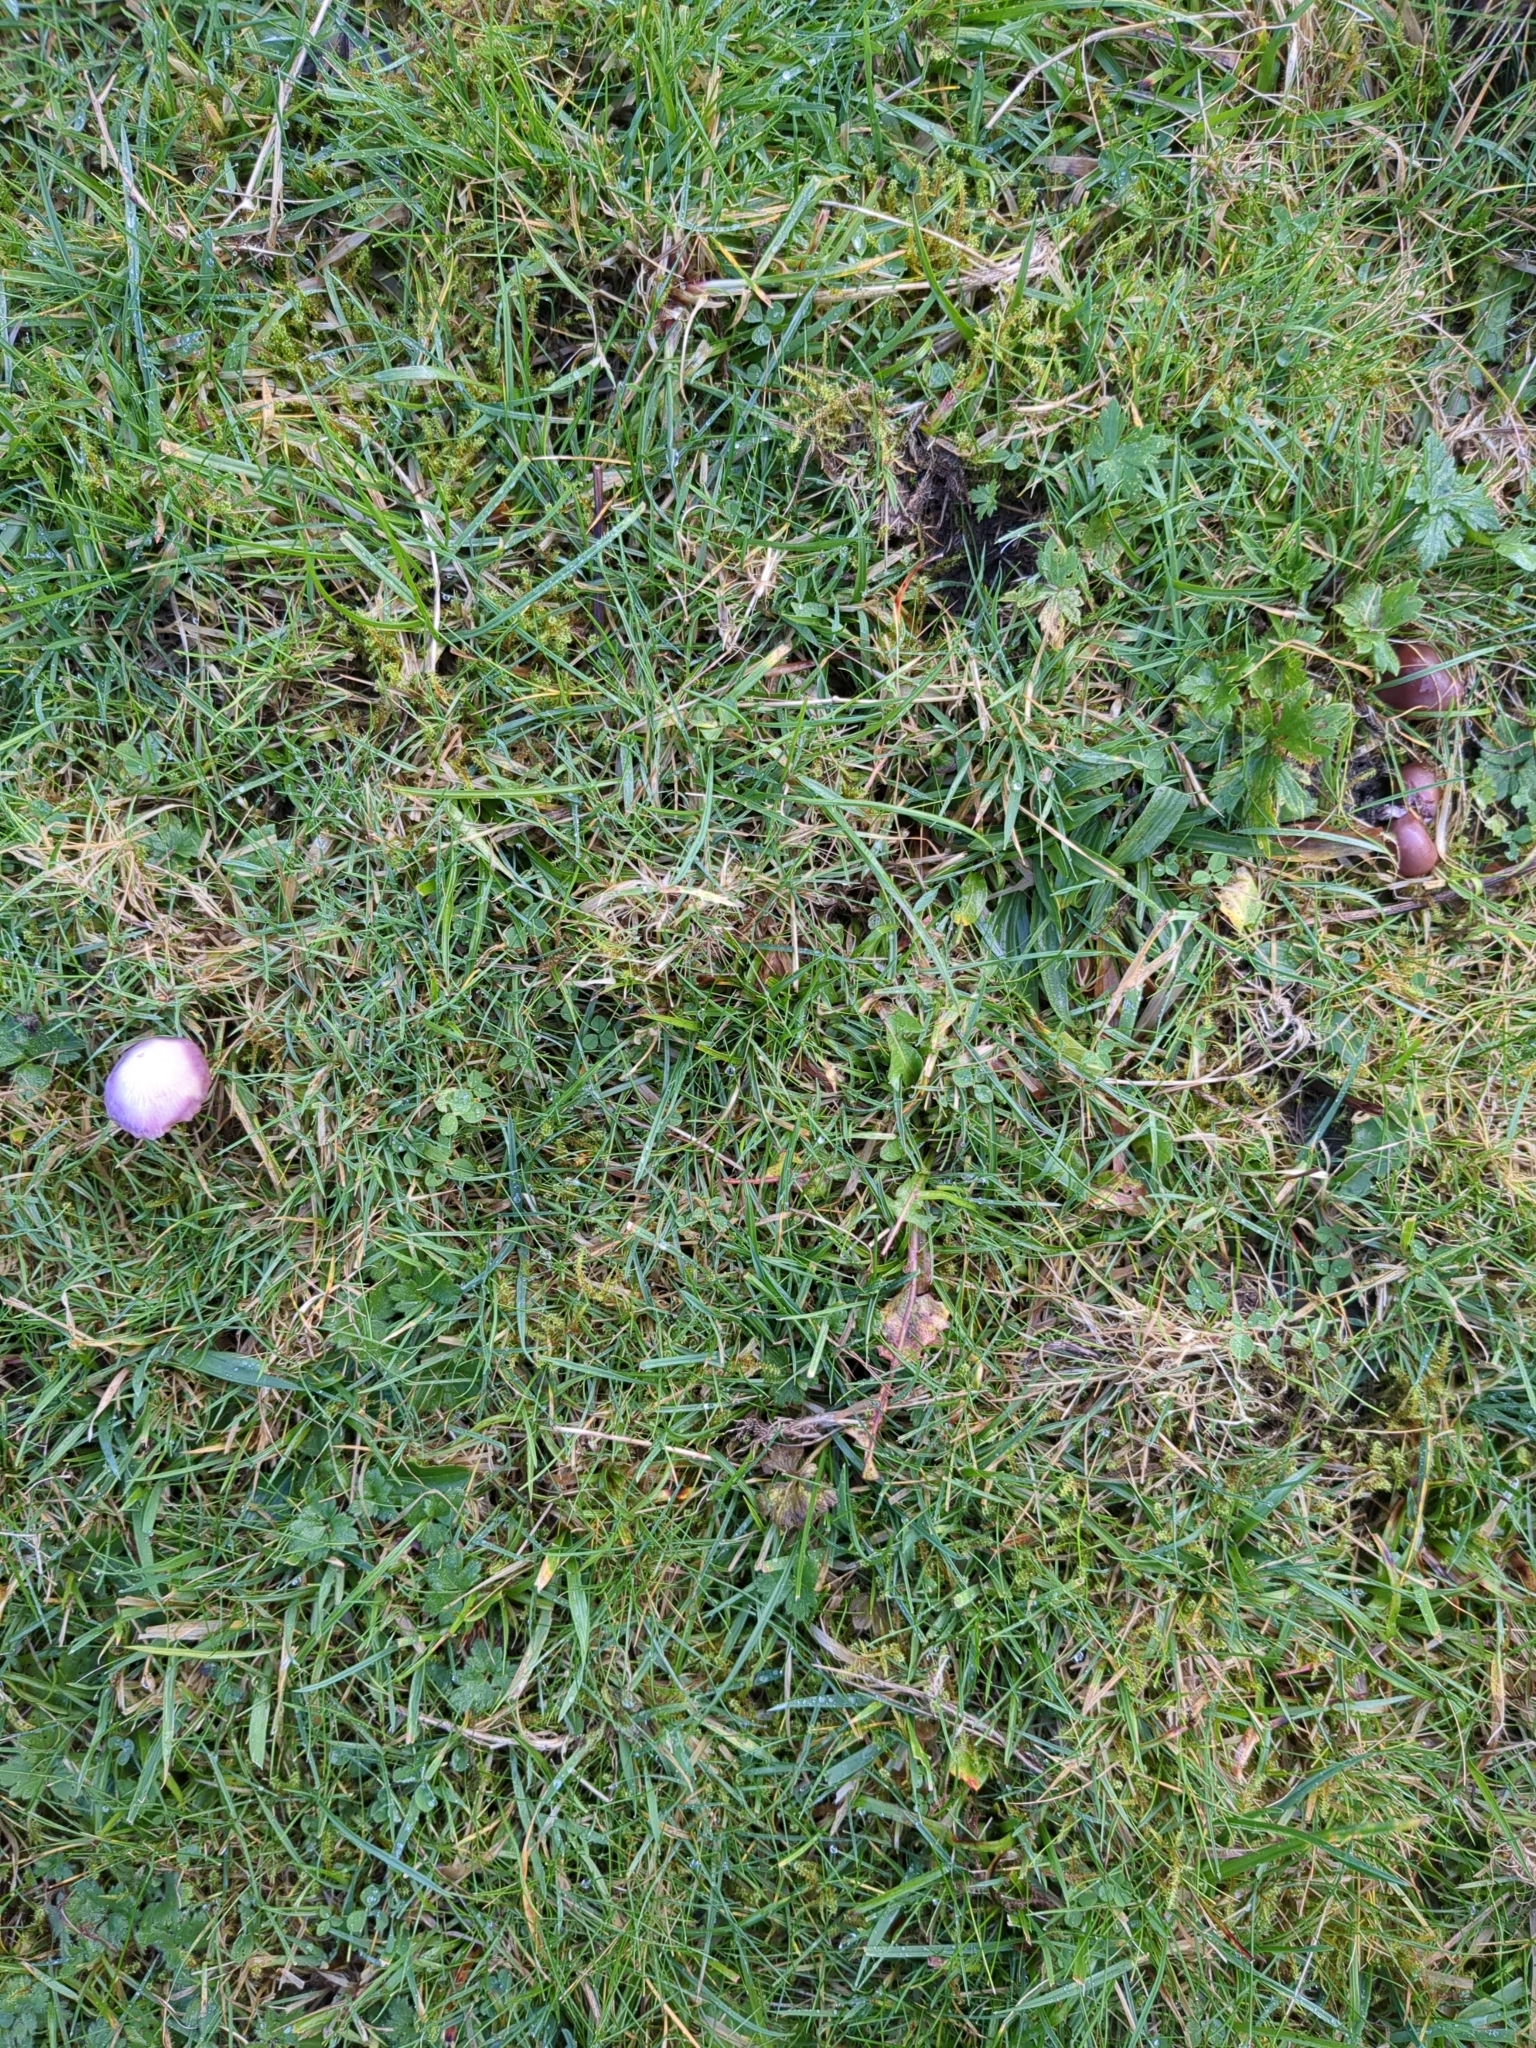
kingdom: Fungi
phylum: Basidiomycota
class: Agaricomycetes
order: Agaricales
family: Hygrophoraceae
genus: Gliophorus
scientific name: Gliophorus reginae
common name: Jubilee waxcap
